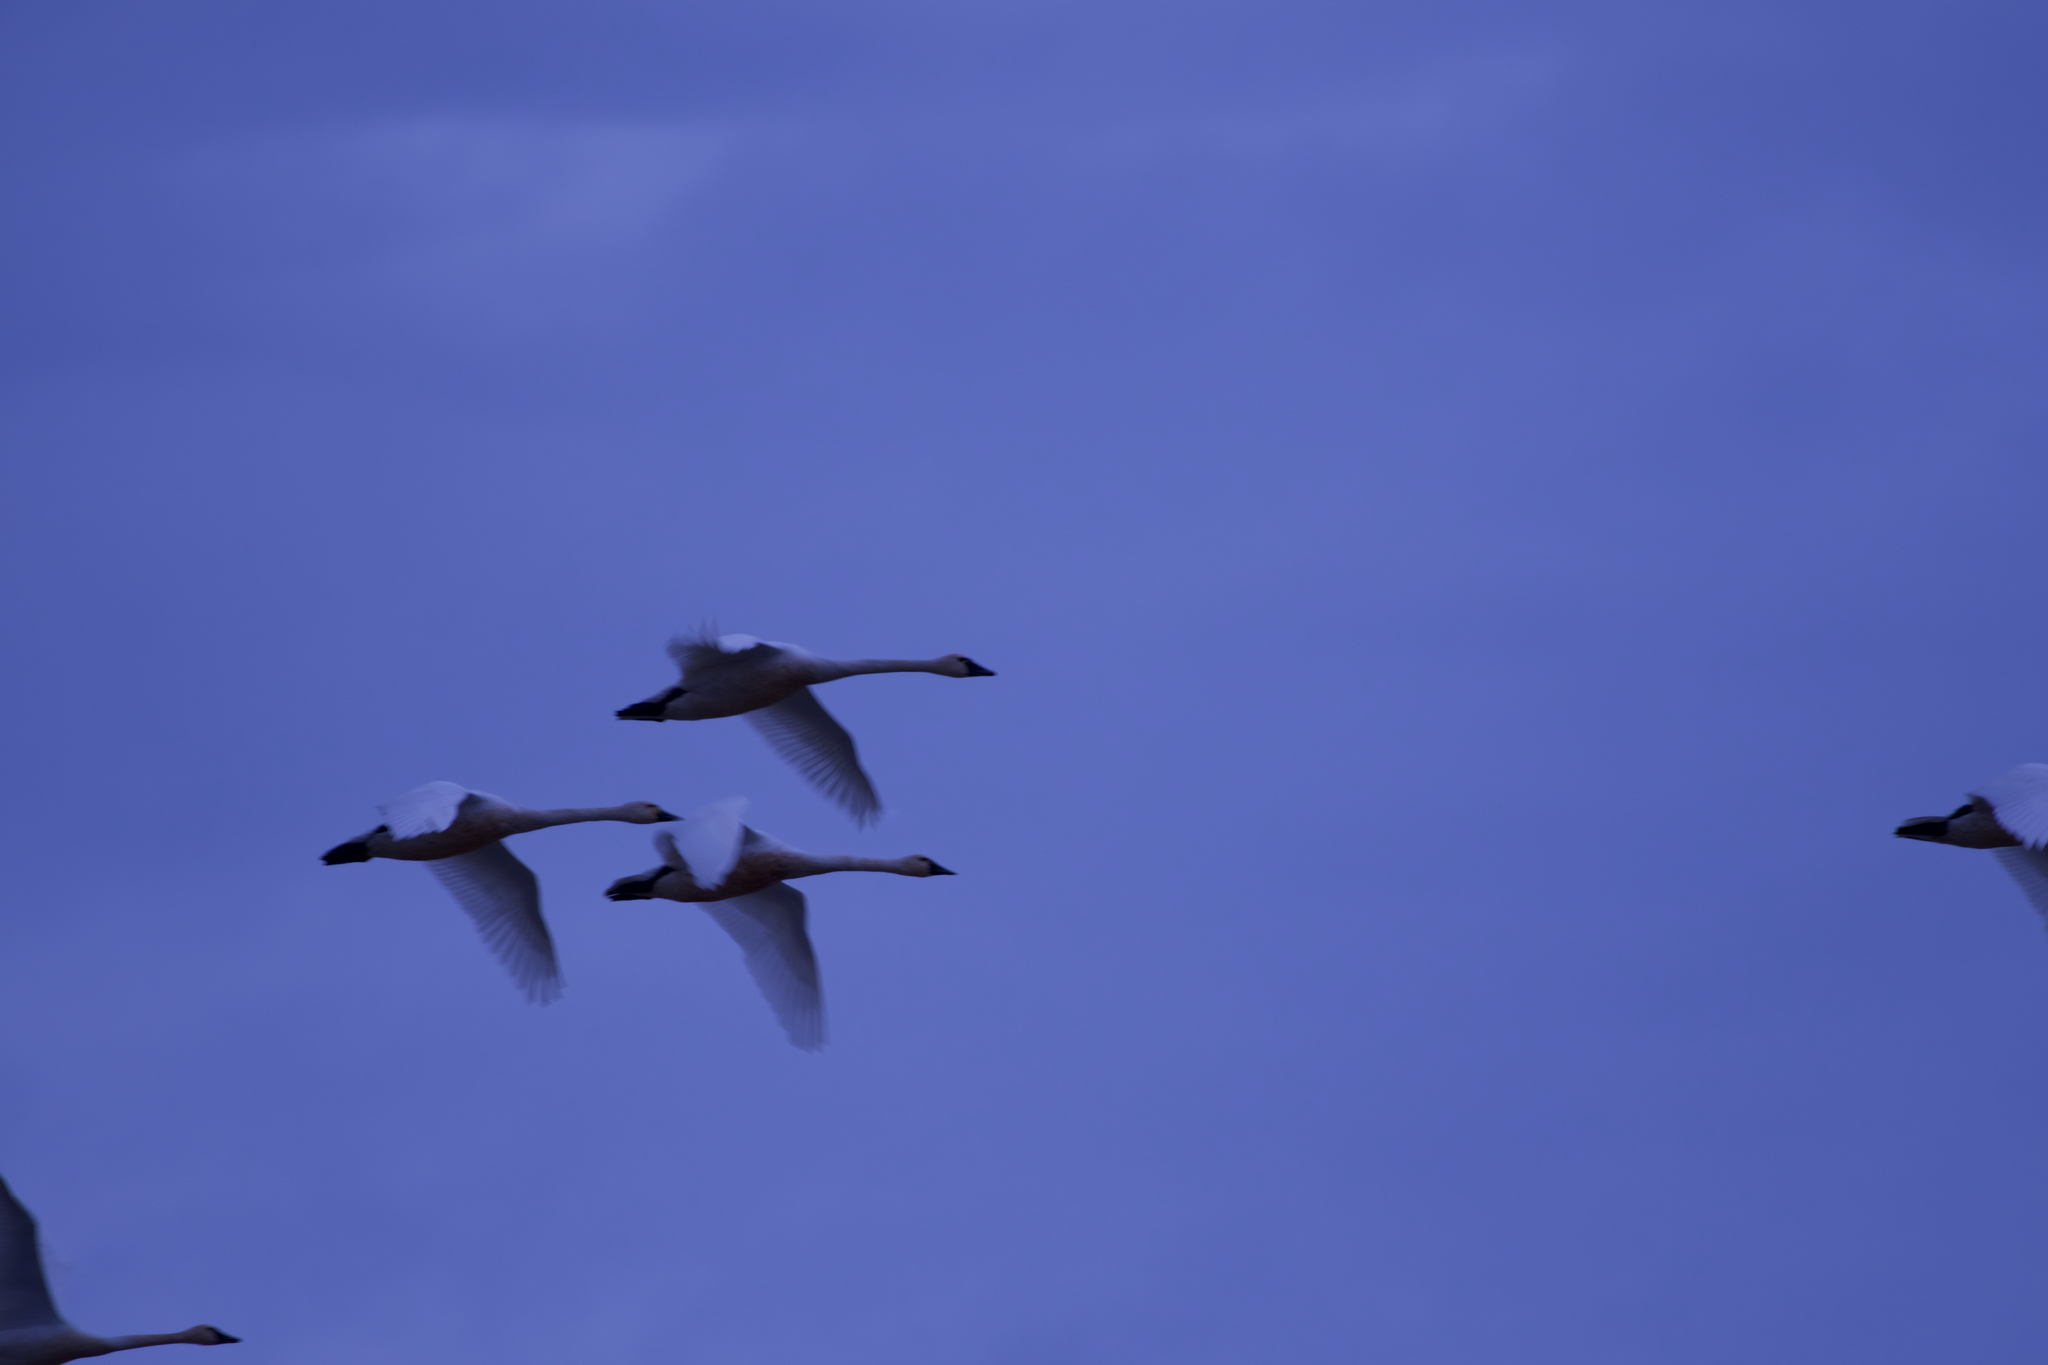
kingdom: Animalia
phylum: Chordata
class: Aves
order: Anseriformes
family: Anatidae
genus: Cygnus
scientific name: Cygnus columbianus
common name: Tundra swan
